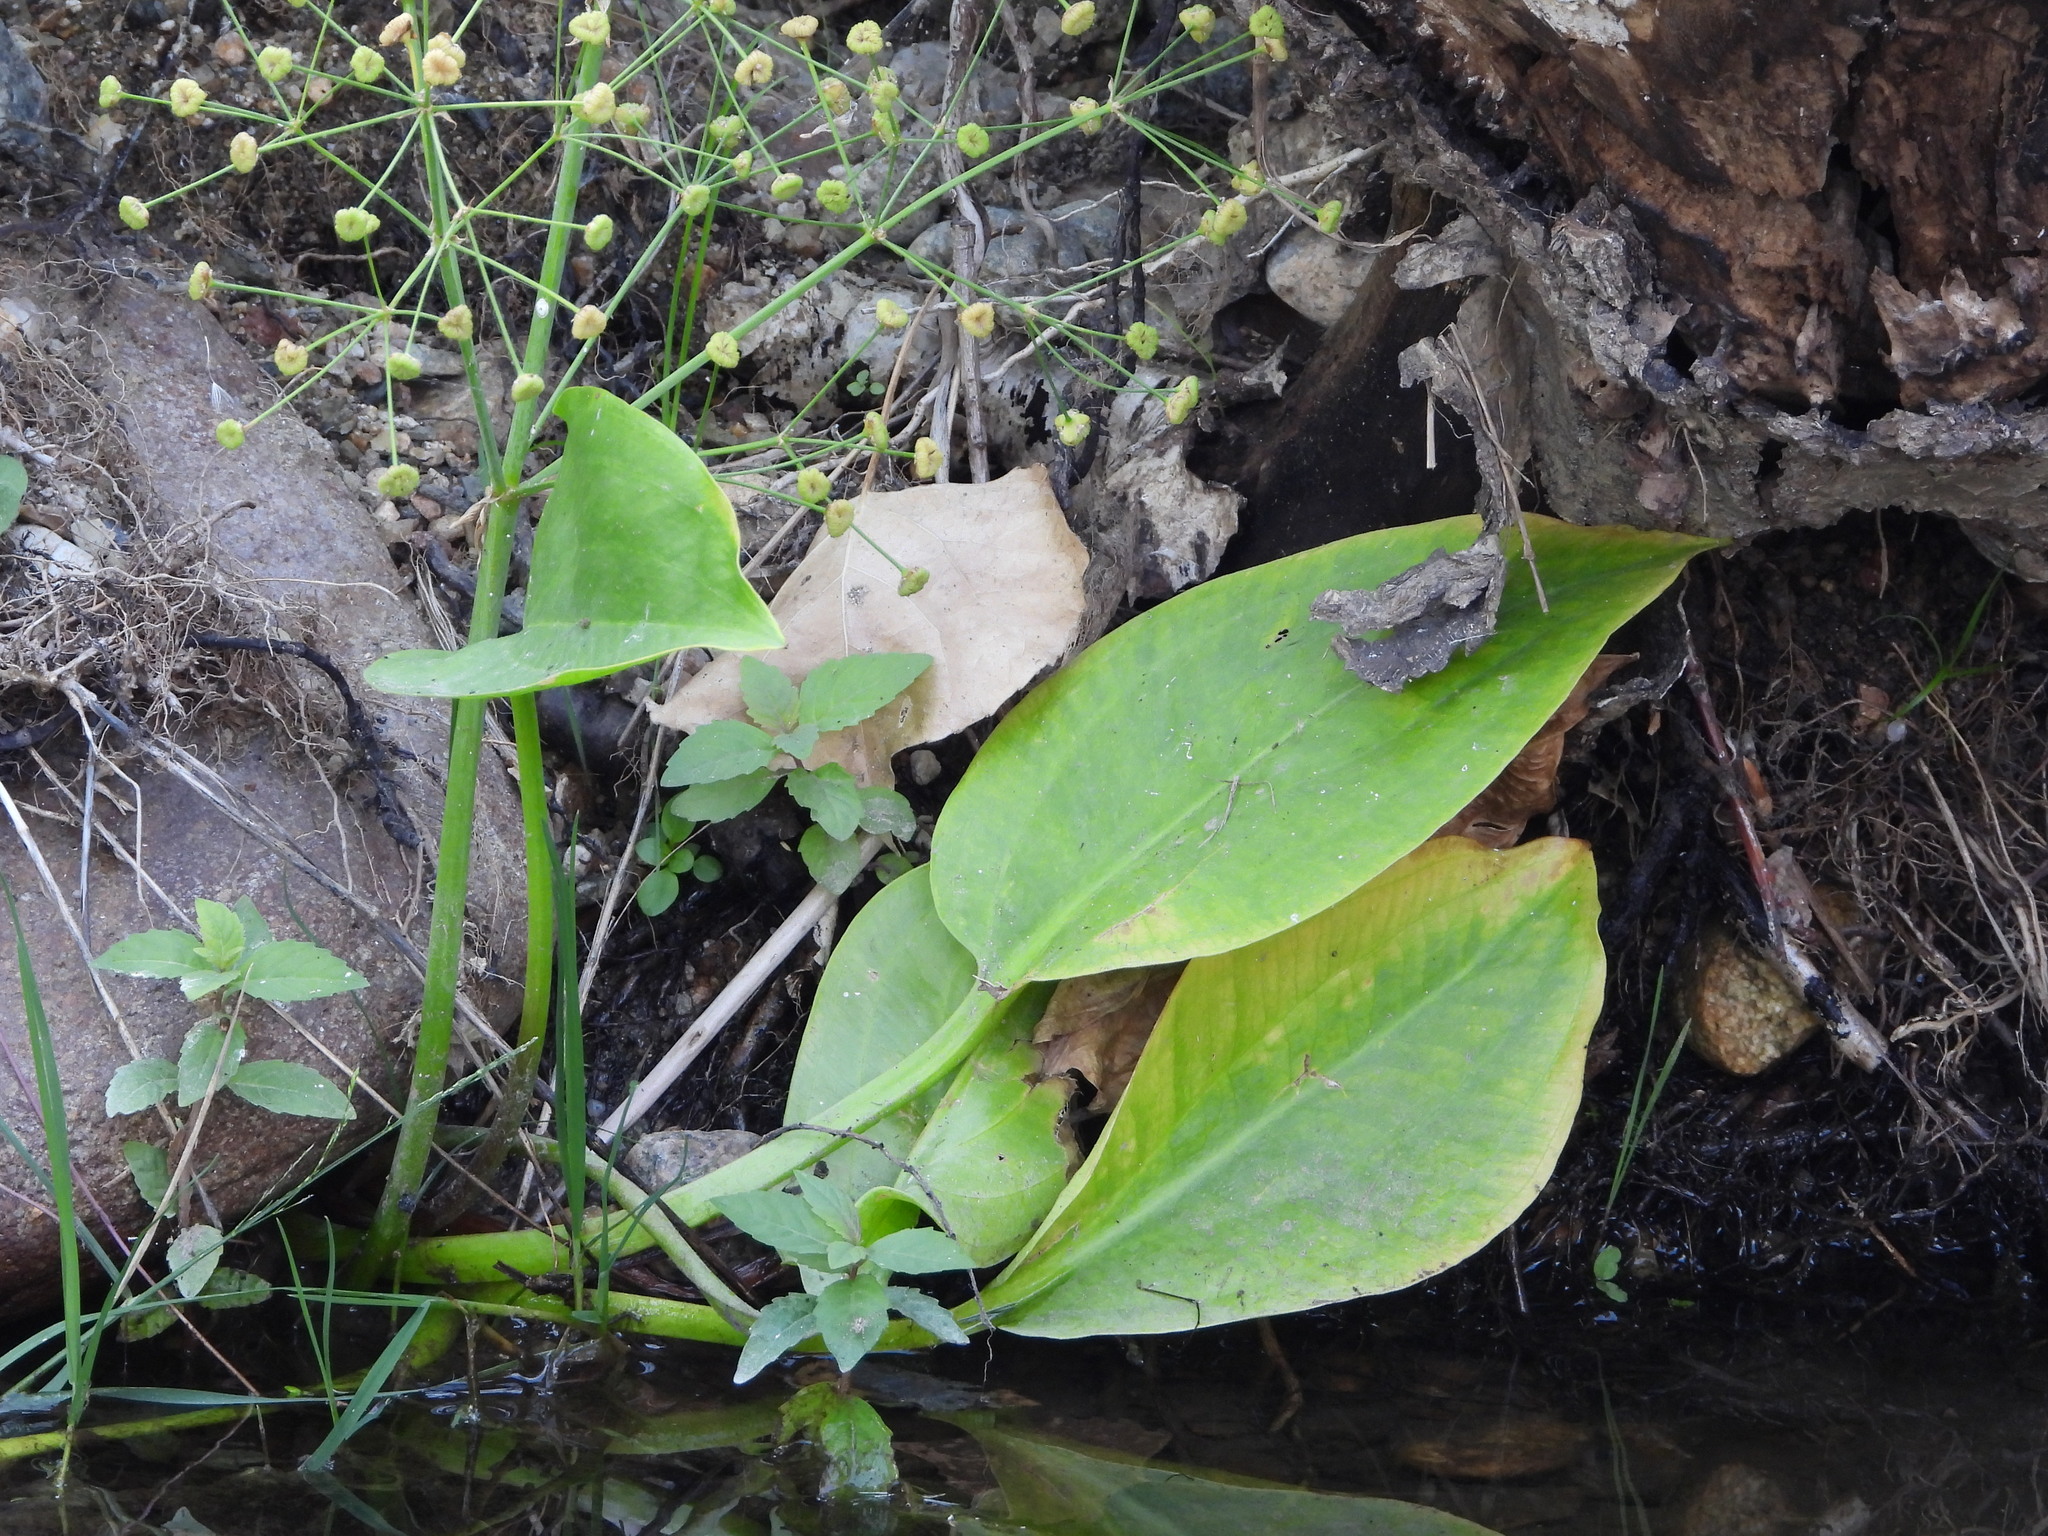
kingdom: Plantae
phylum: Tracheophyta
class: Liliopsida
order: Alismatales
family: Alismataceae
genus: Alisma
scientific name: Alisma triviale
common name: Northern water-plantain
